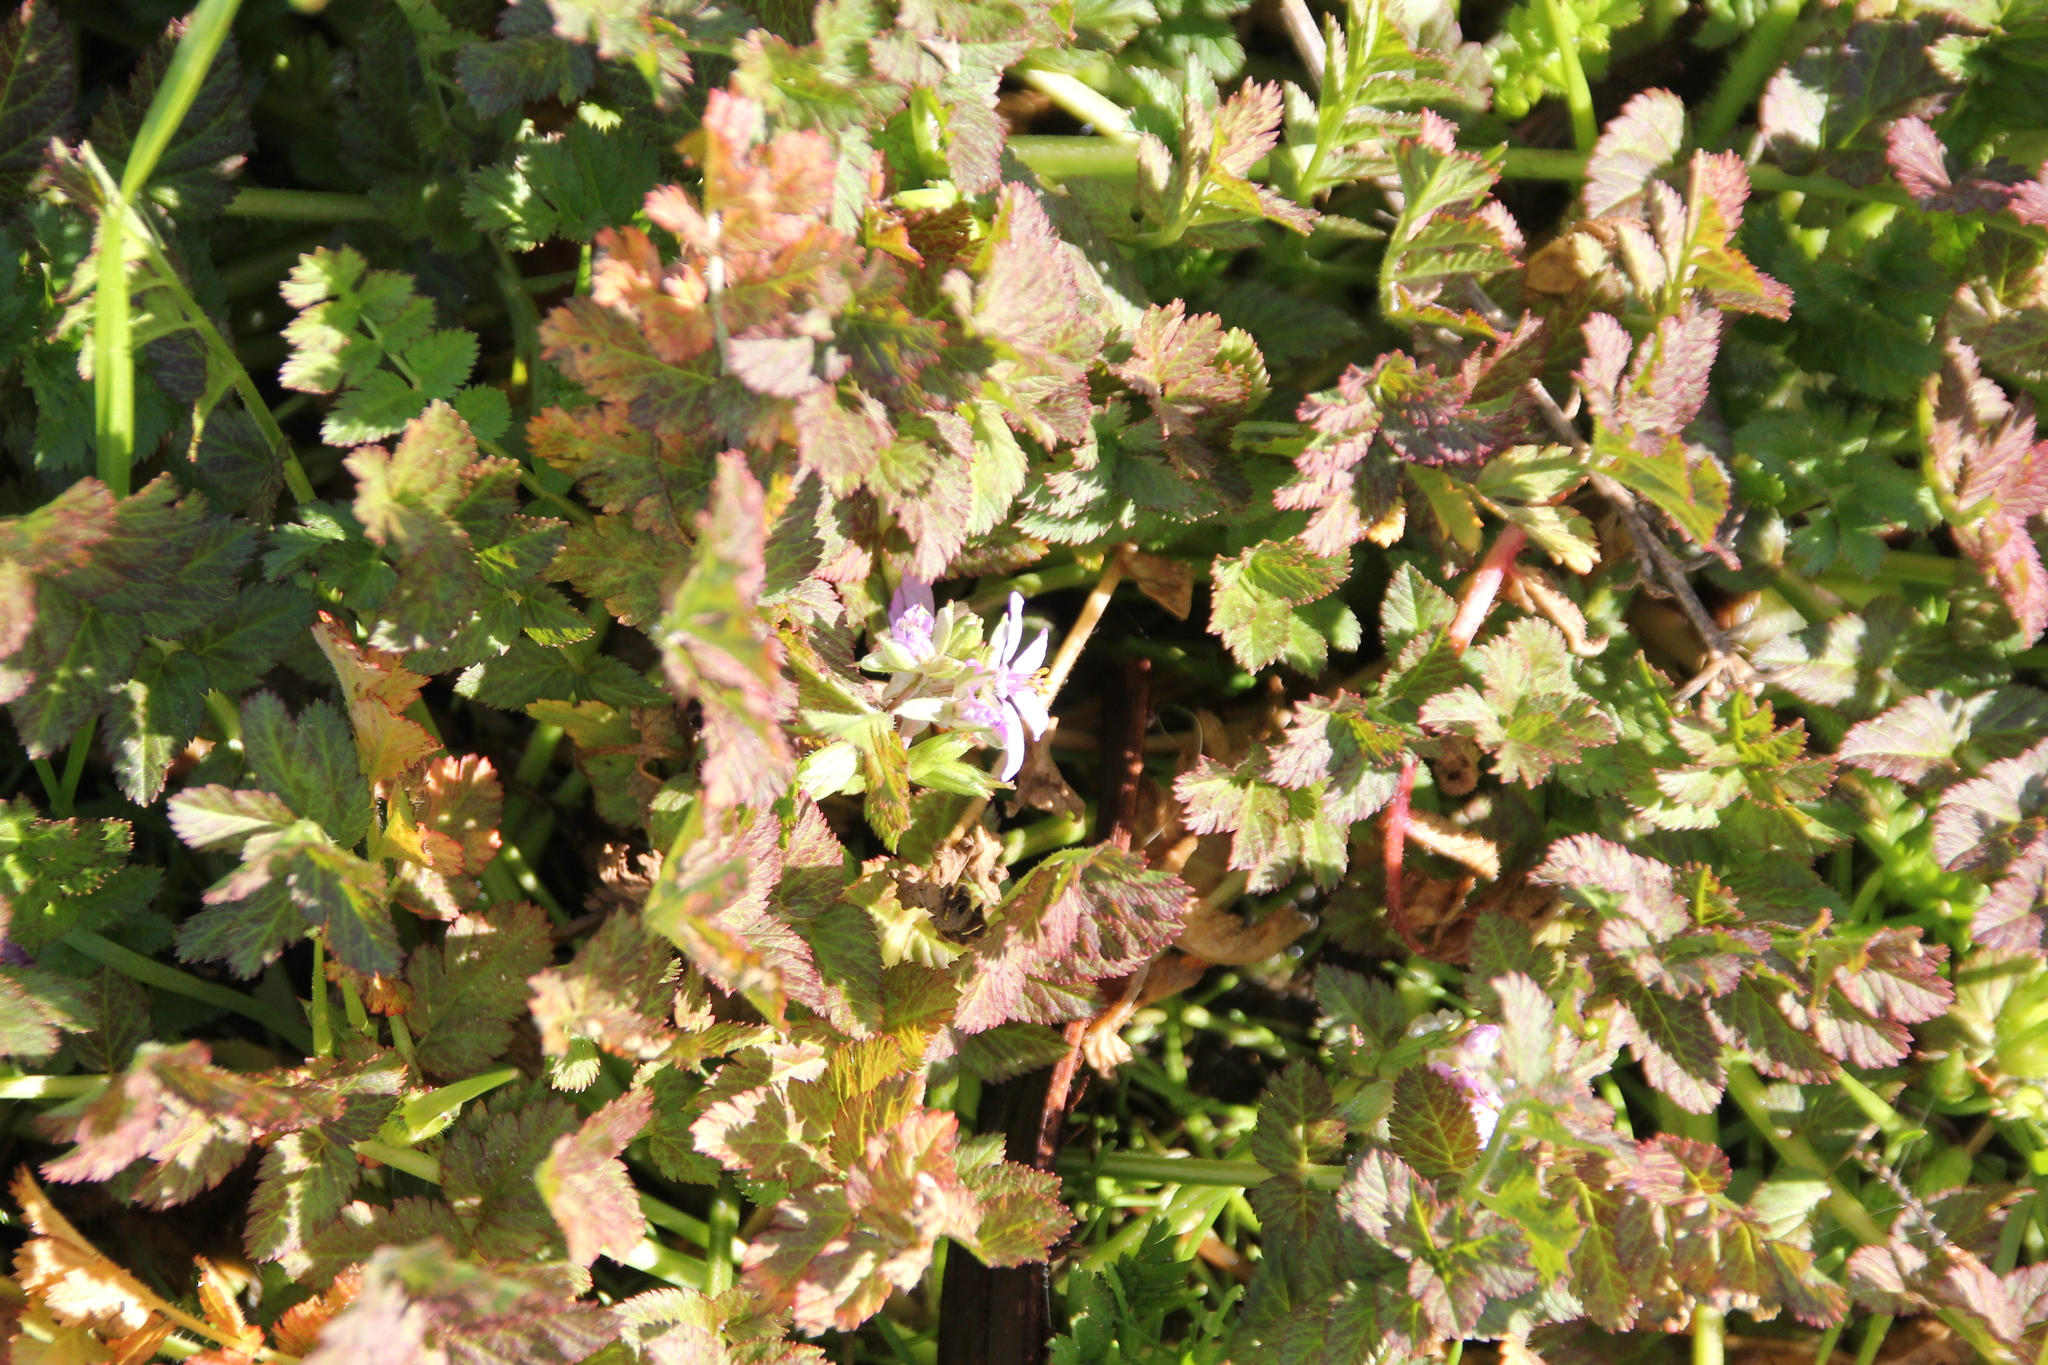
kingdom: Plantae
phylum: Tracheophyta
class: Magnoliopsida
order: Geraniales
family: Geraniaceae
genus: Erodium
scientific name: Erodium moschatum
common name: Musk stork's-bill
